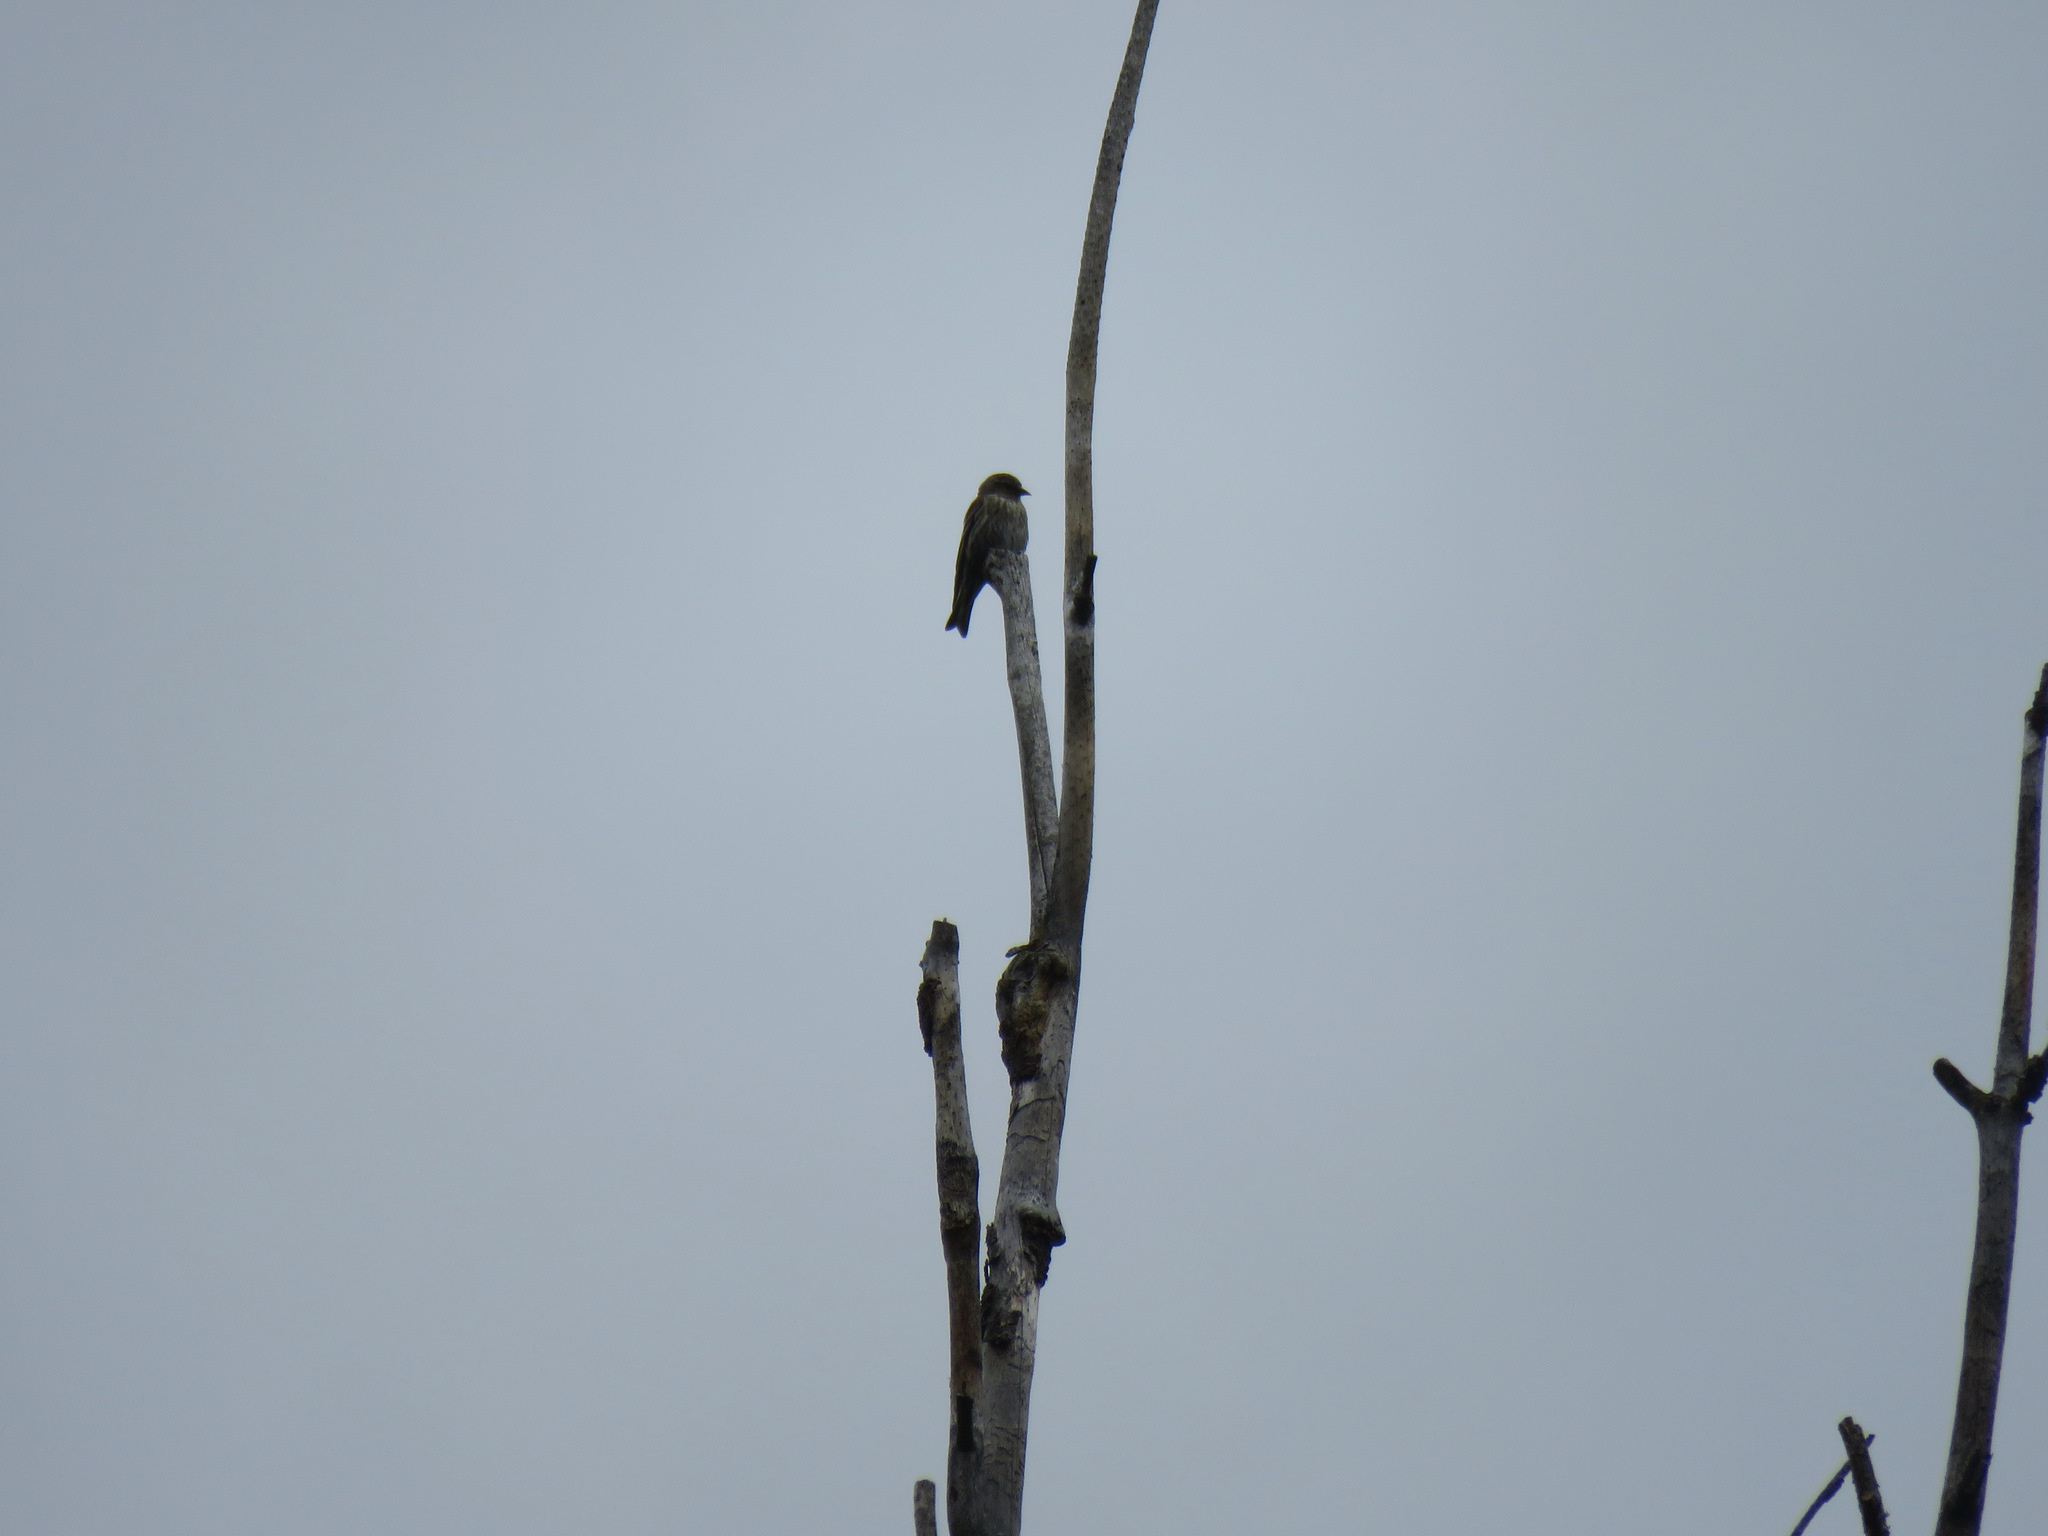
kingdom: Animalia
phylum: Chordata
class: Aves
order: Passeriformes
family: Fringillidae
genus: Spinus
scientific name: Spinus pinus
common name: Pine siskin
